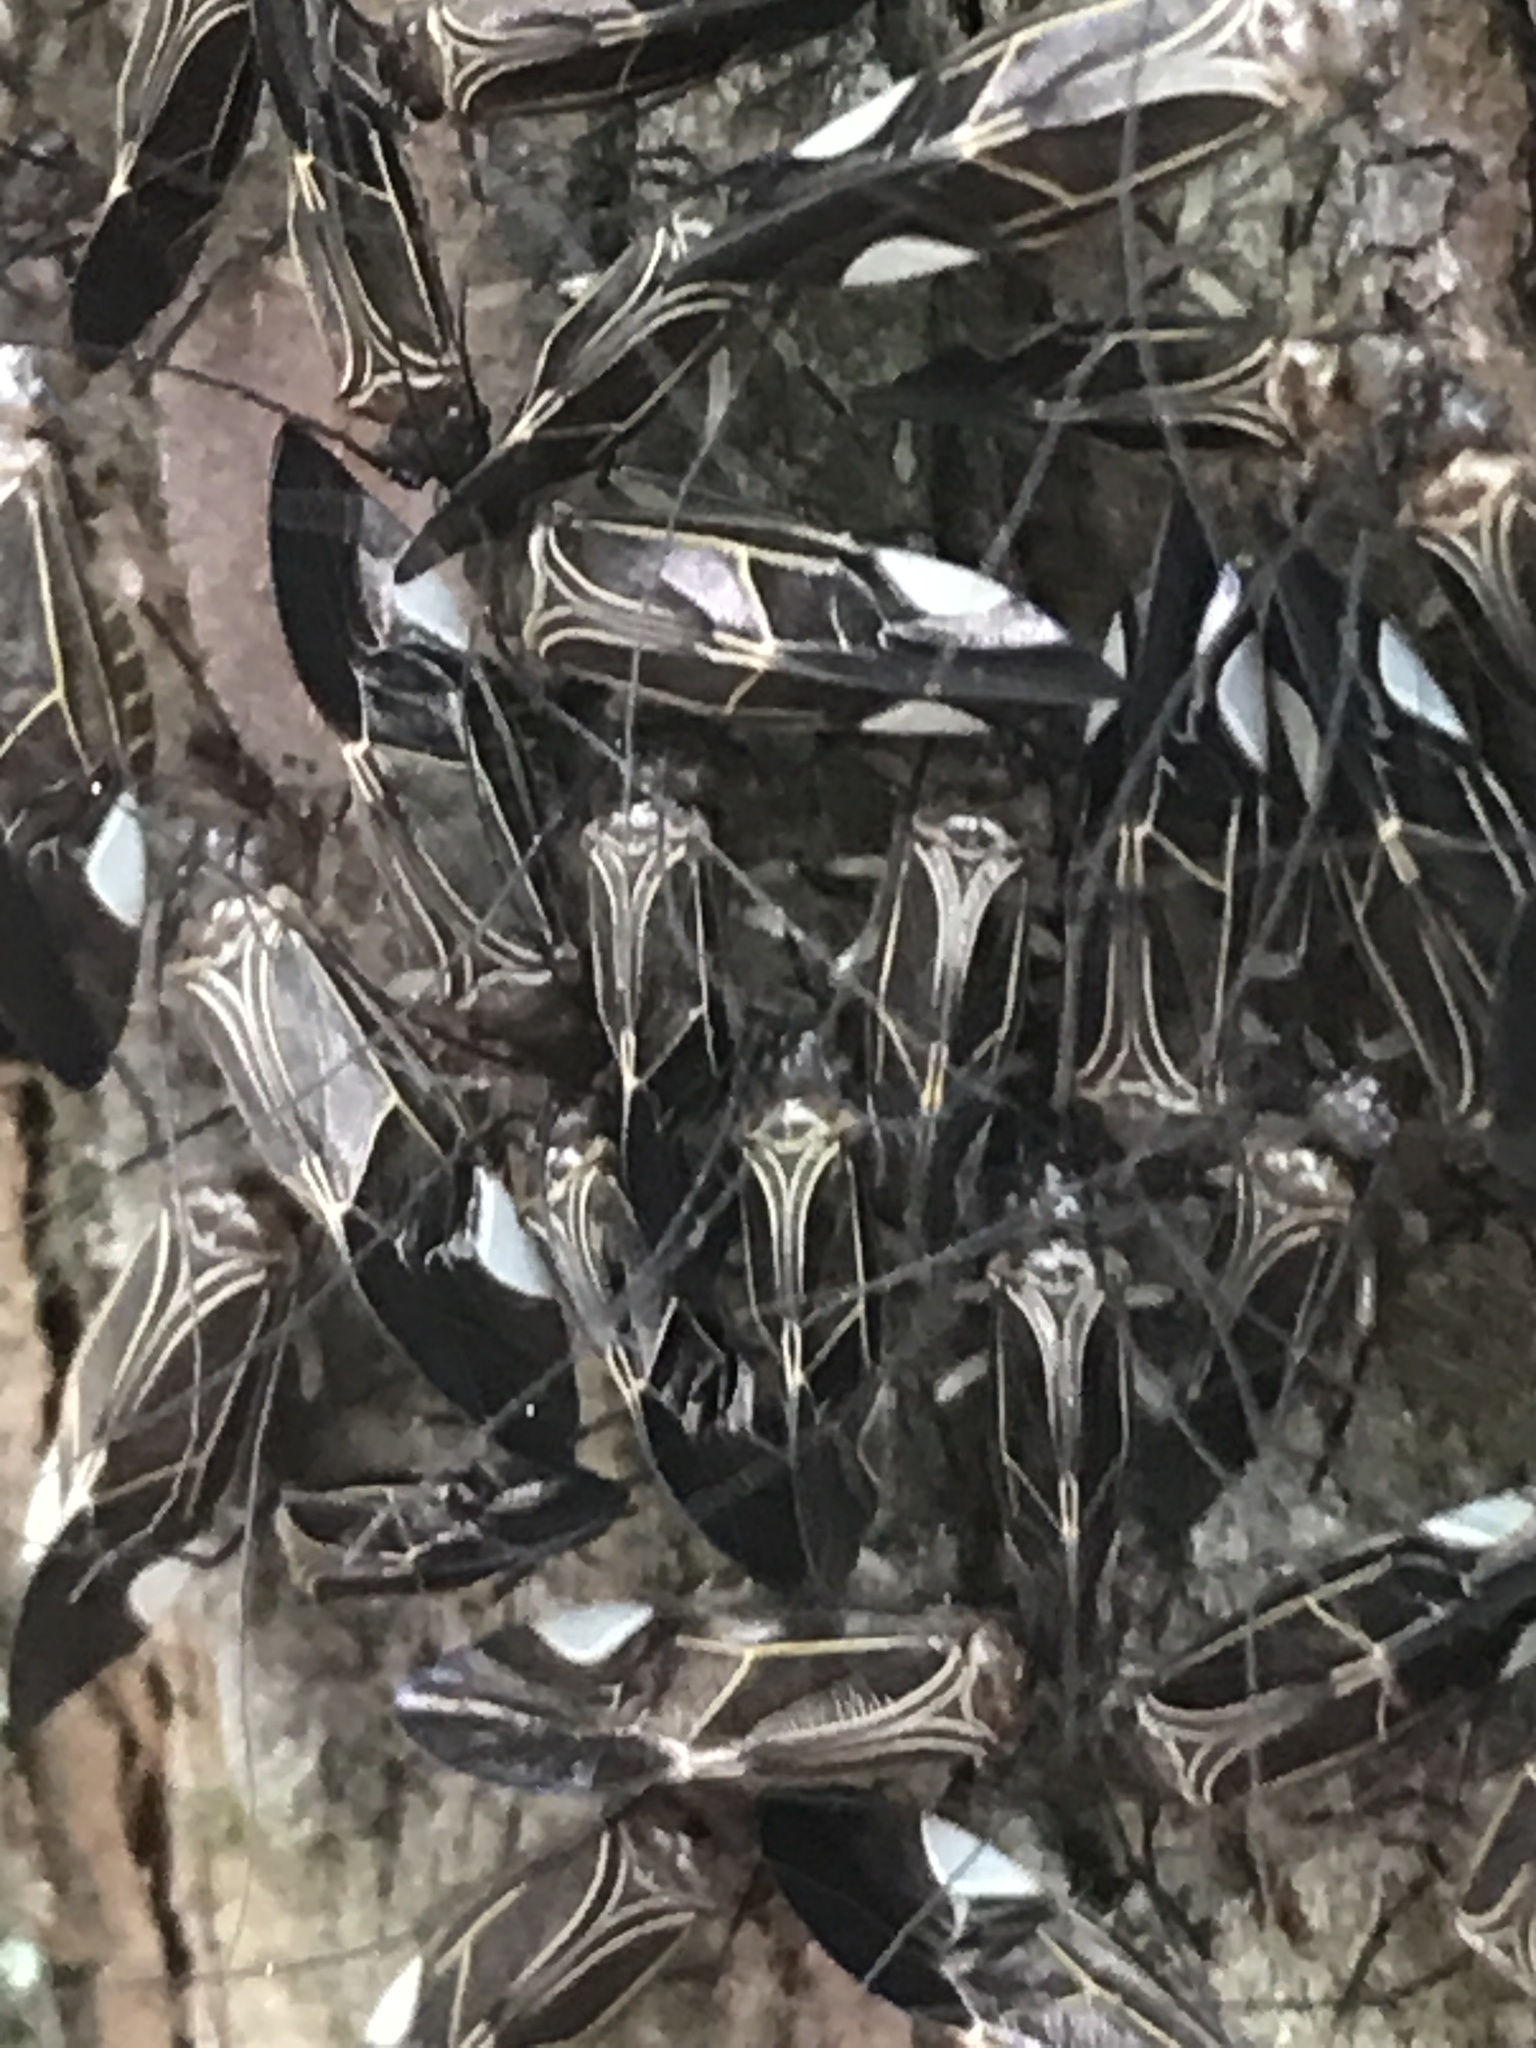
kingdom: Animalia
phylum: Arthropoda
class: Insecta
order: Psocodea
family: Psocidae
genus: Cerastipsocus
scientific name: Cerastipsocus venosus
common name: Tree cattle
